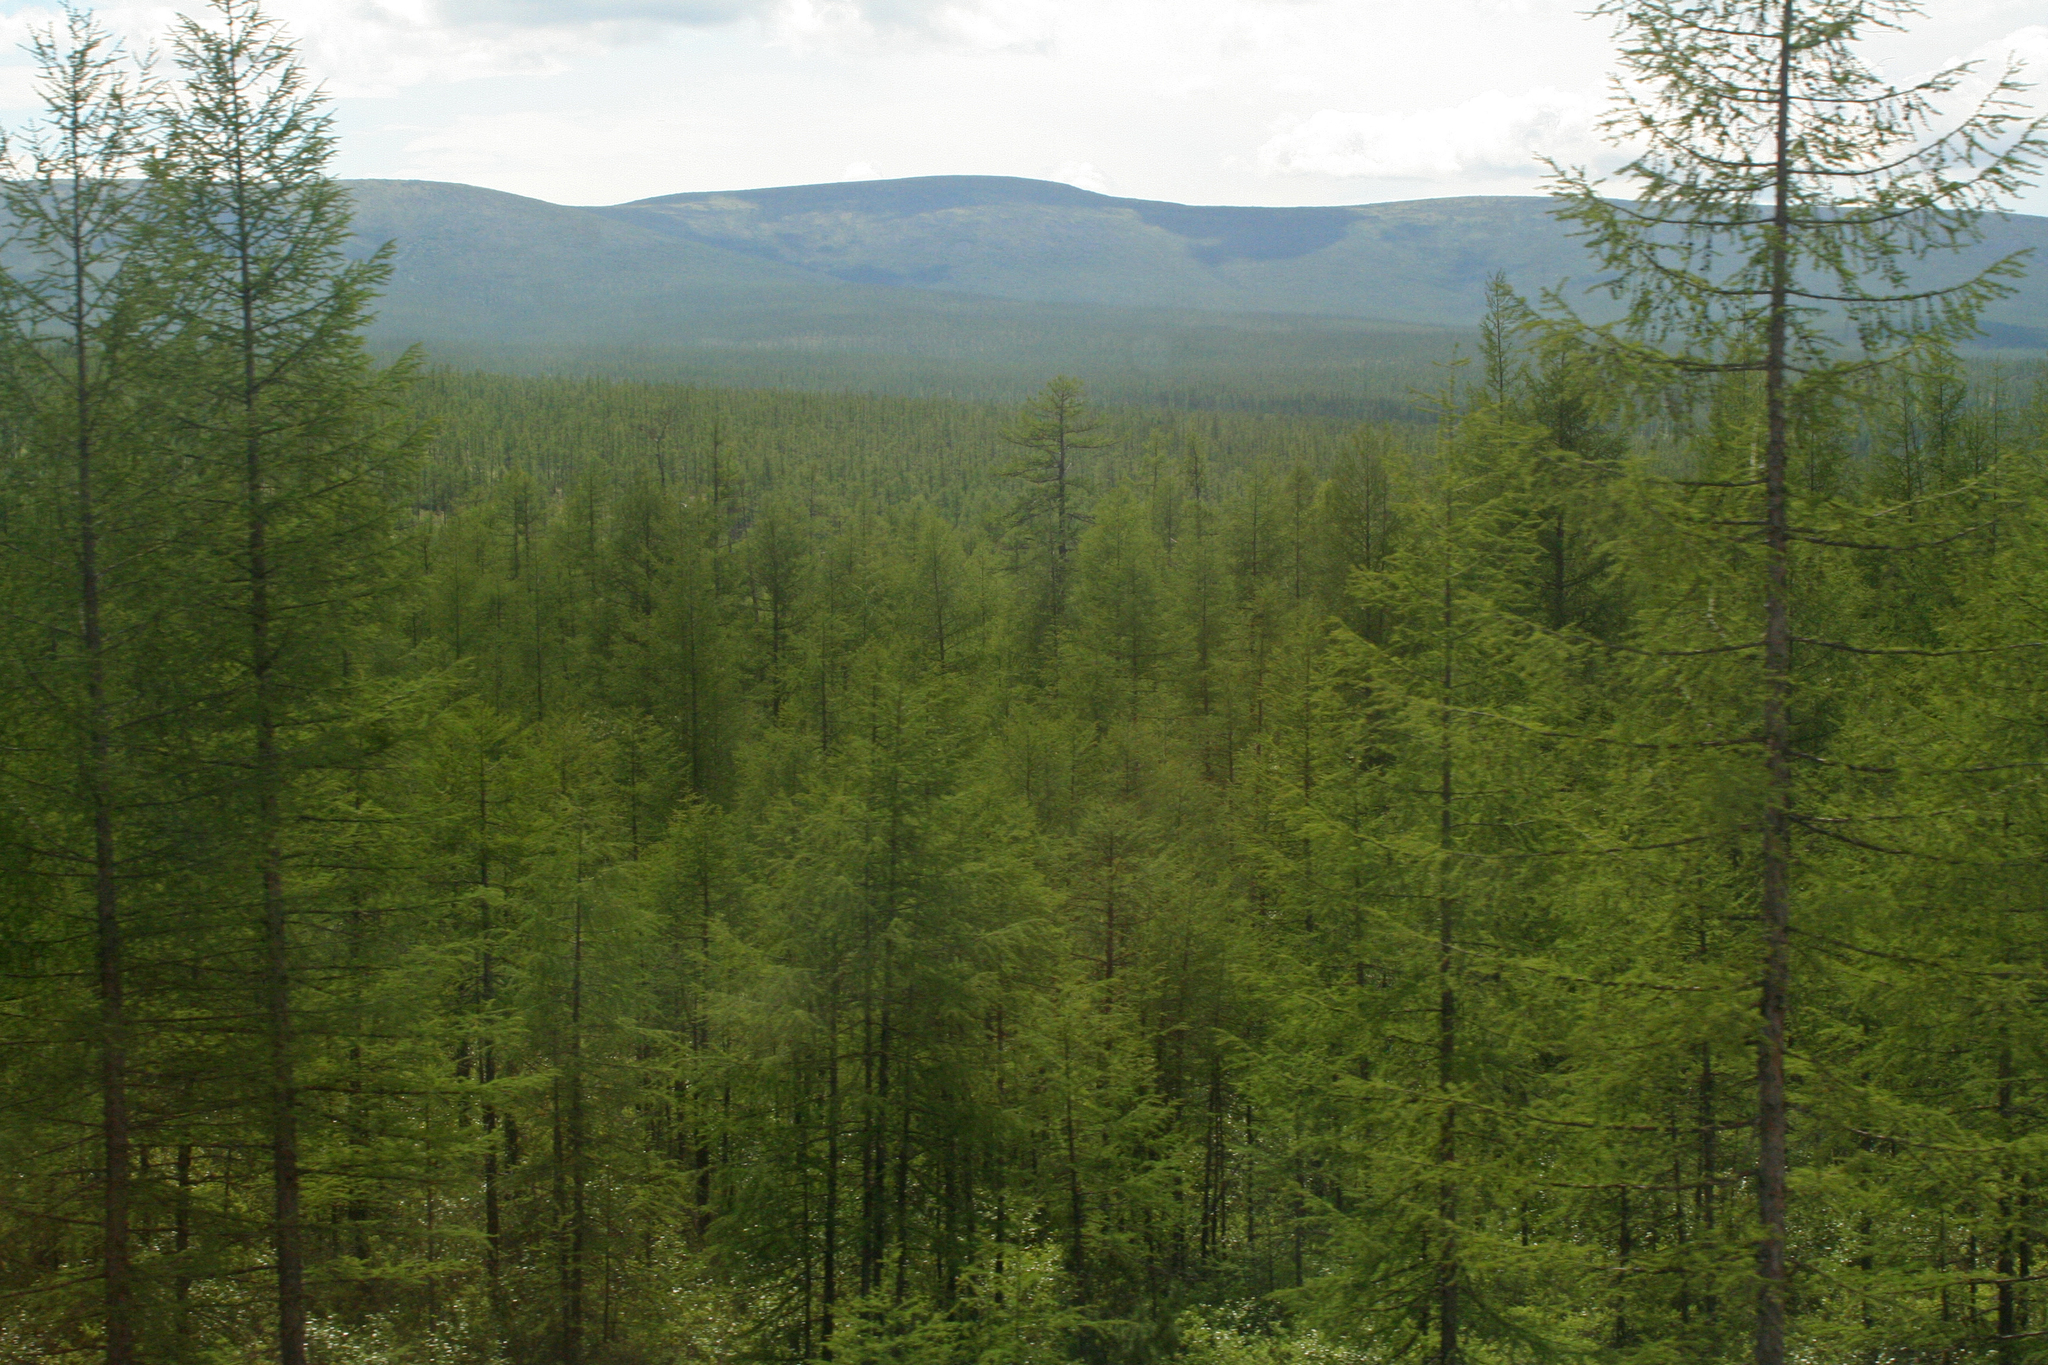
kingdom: Plantae
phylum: Tracheophyta
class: Pinopsida
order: Pinales
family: Pinaceae
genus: Larix
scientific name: Larix gmelinii
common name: Dahurian larch
